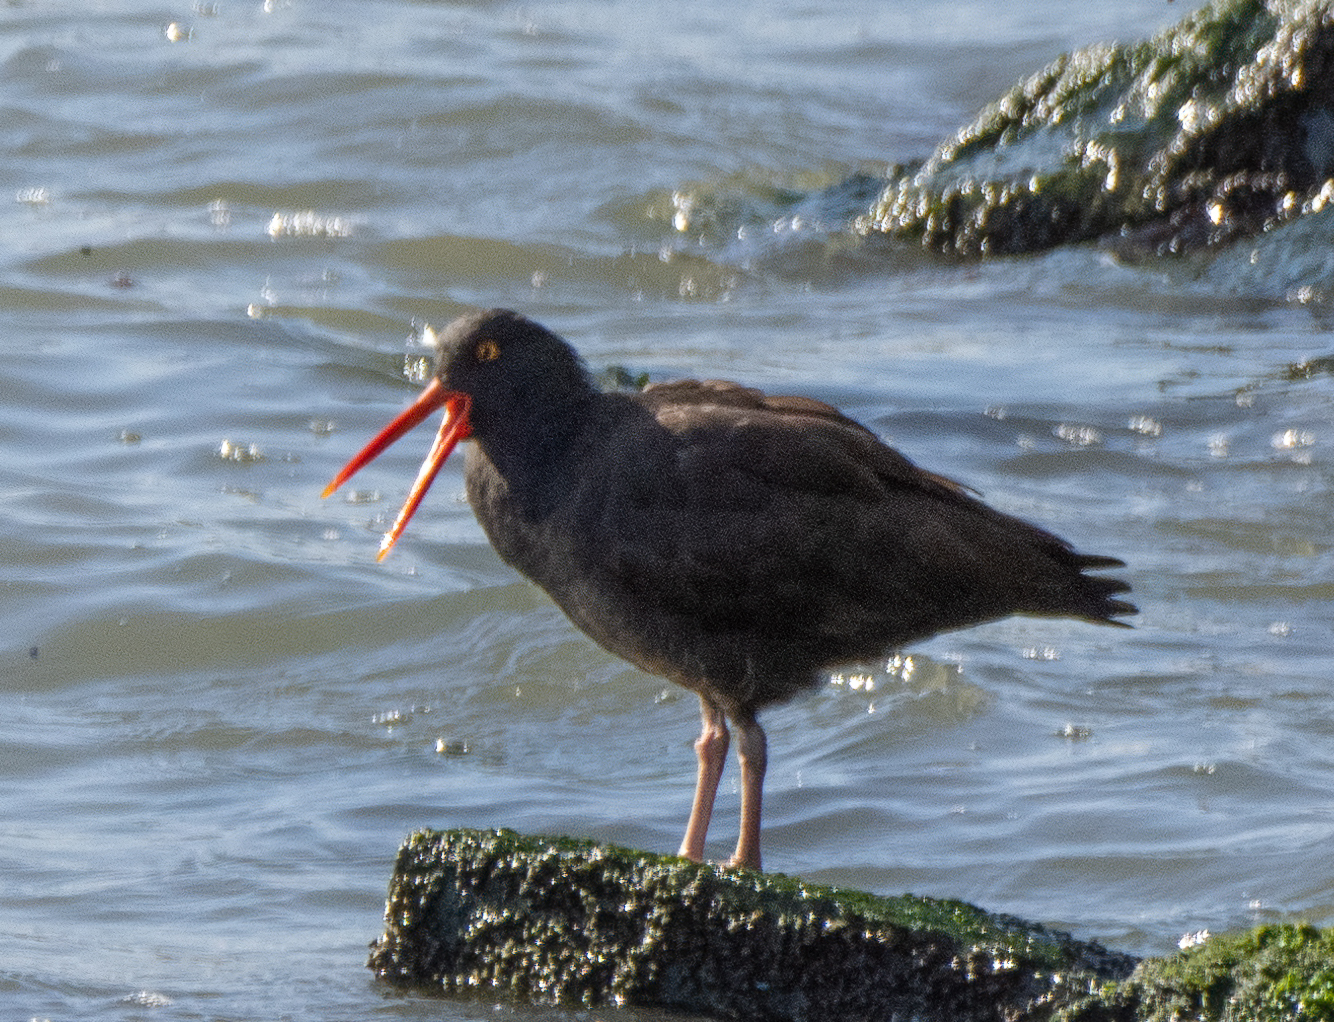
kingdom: Animalia
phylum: Chordata
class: Aves
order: Charadriiformes
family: Haematopodidae
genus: Haematopus
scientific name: Haematopus bachmani
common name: Black oystercatcher
